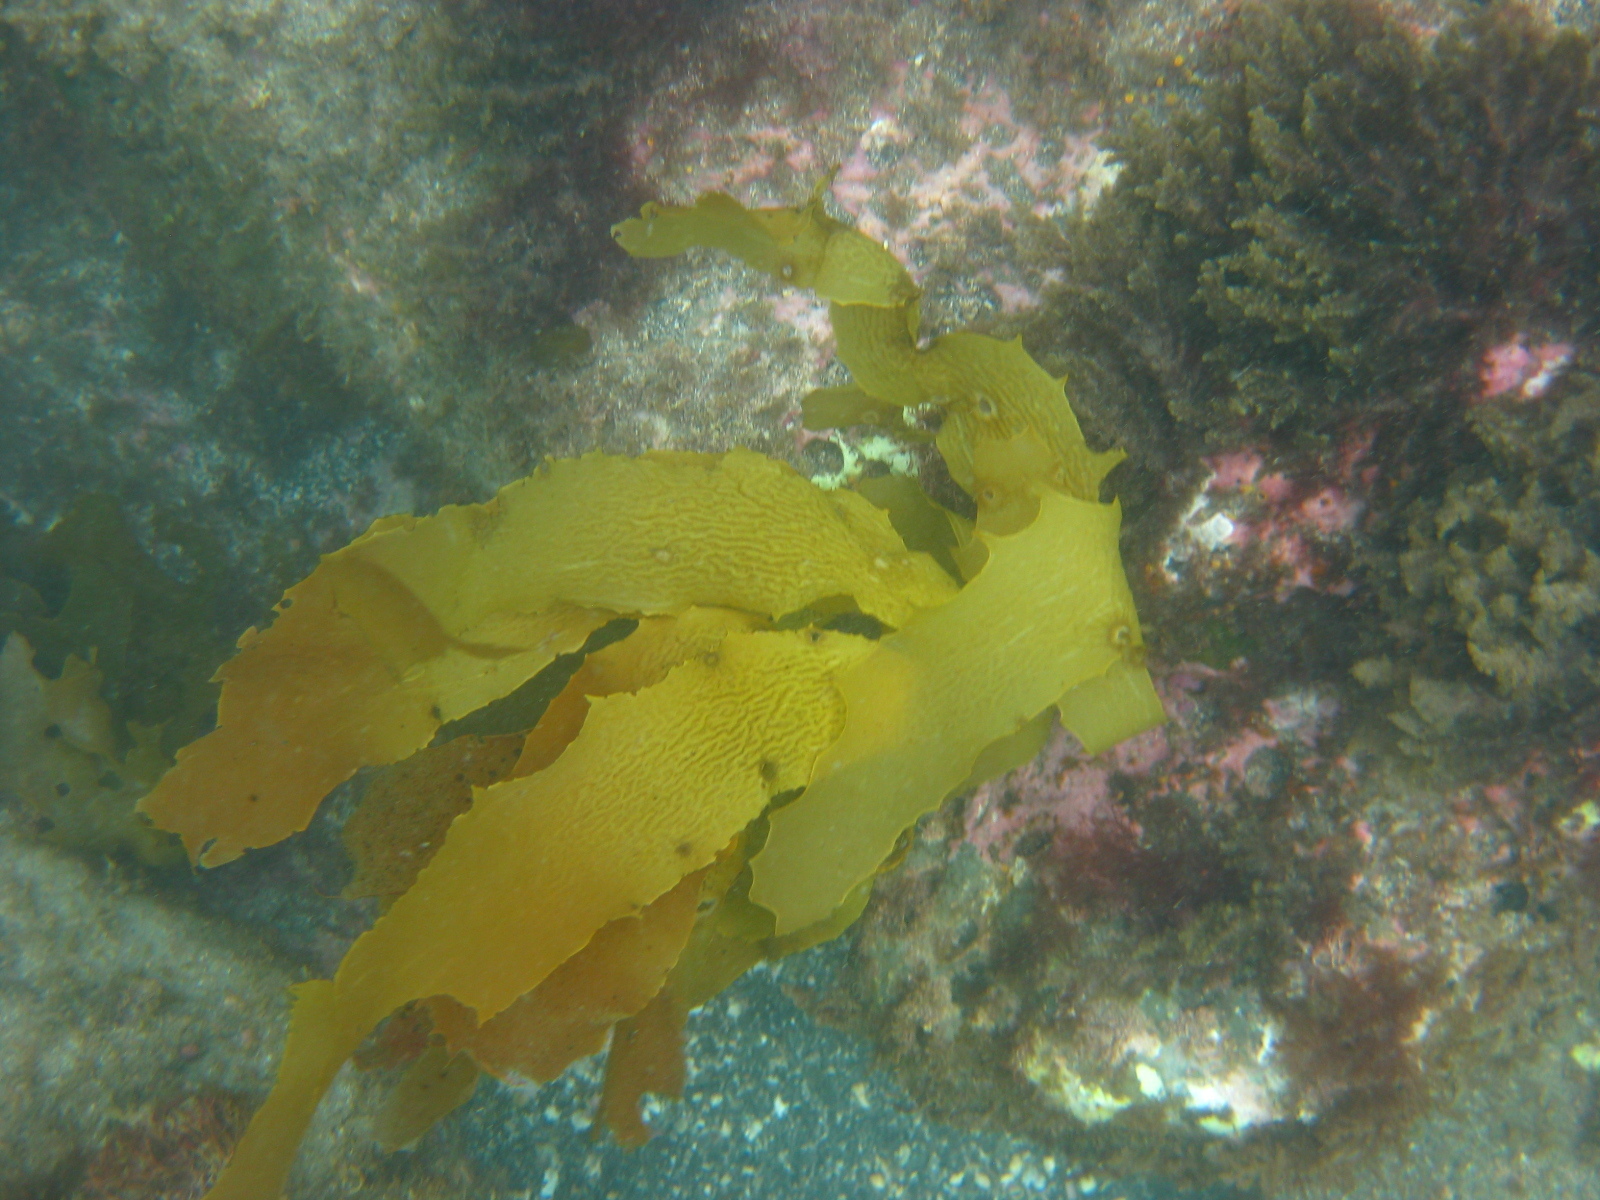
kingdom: Chromista
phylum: Ochrophyta
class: Phaeophyceae
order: Laminariales
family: Lessoniaceae
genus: Ecklonia
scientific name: Ecklonia radiata
